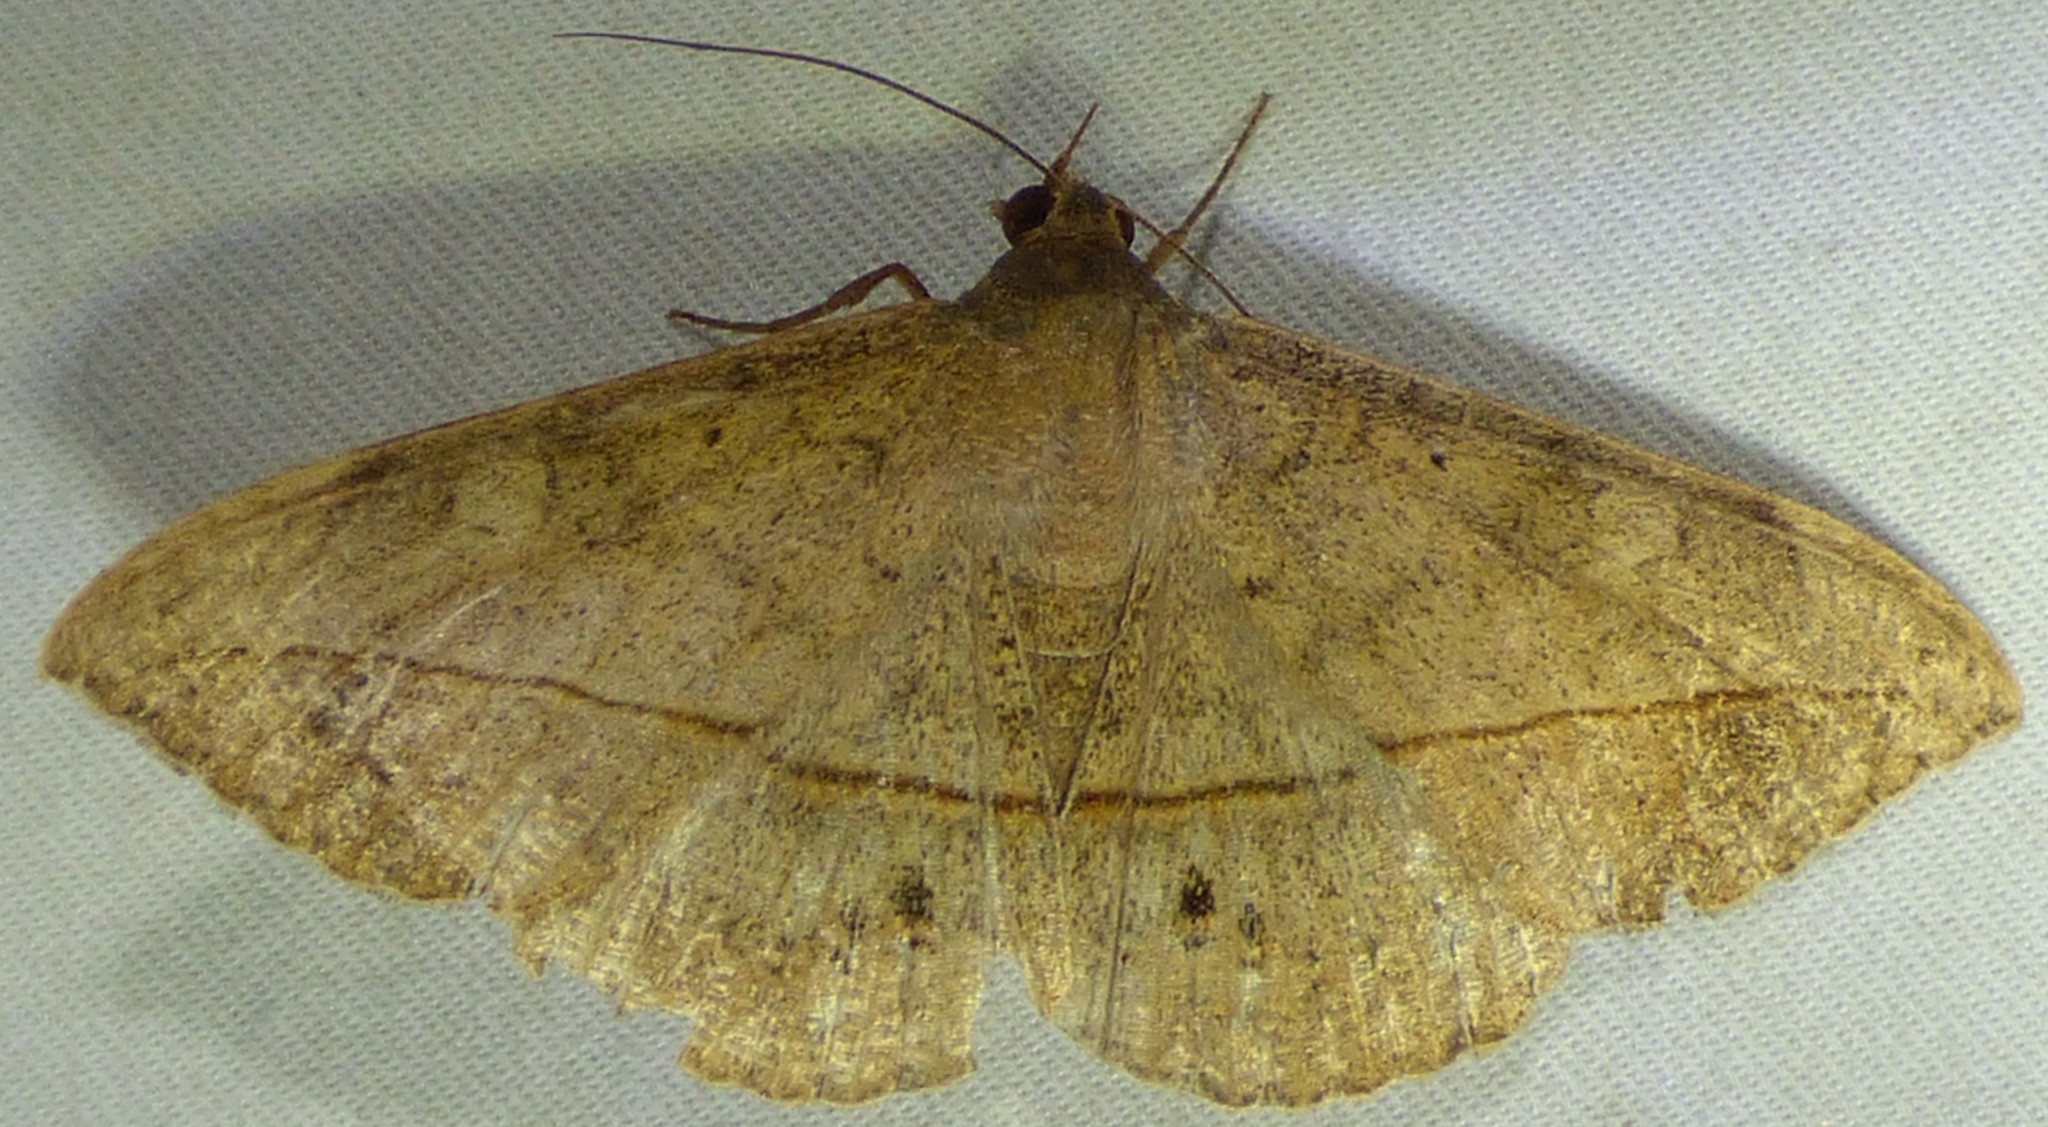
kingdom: Animalia
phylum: Arthropoda
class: Insecta
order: Lepidoptera
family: Erebidae
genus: Anticarsia
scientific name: Anticarsia gemmatalis
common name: Cutworm moth
